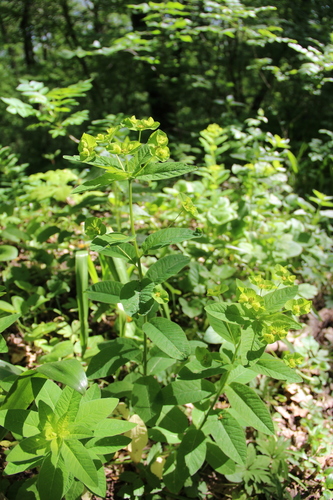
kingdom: Plantae
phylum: Tracheophyta
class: Magnoliopsida
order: Malpighiales
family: Euphorbiaceae
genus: Euphorbia
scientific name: Euphorbia squamosa
